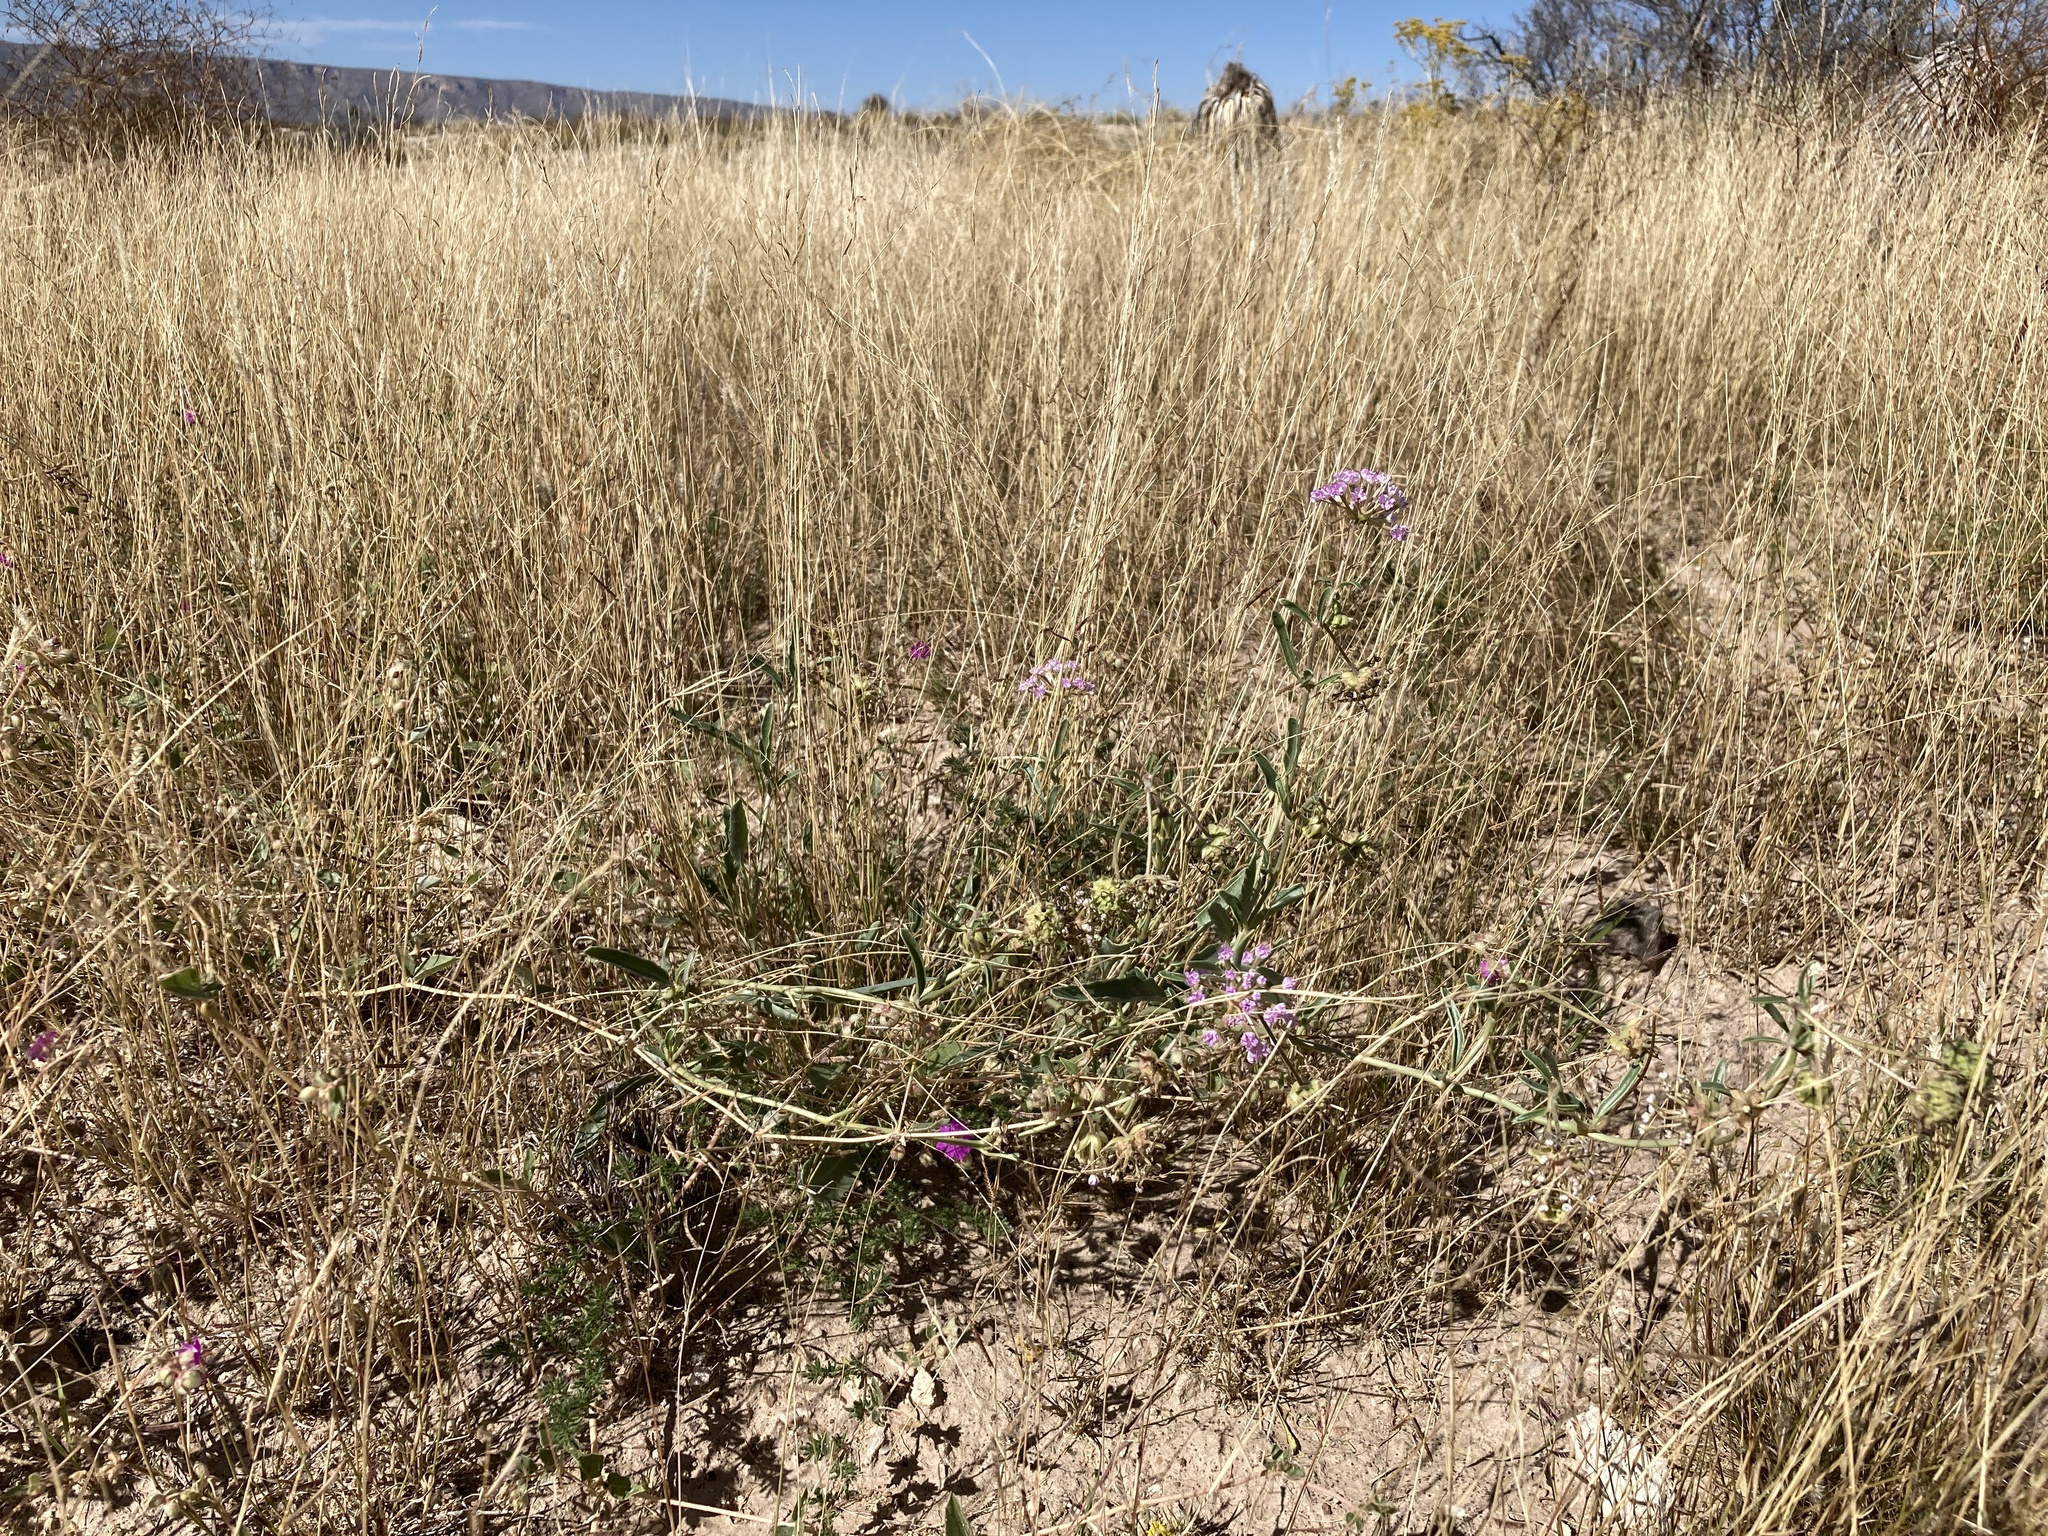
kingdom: Plantae
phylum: Tracheophyta
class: Magnoliopsida
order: Caryophyllales
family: Nyctaginaceae
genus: Abronia
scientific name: Abronia carletonii
